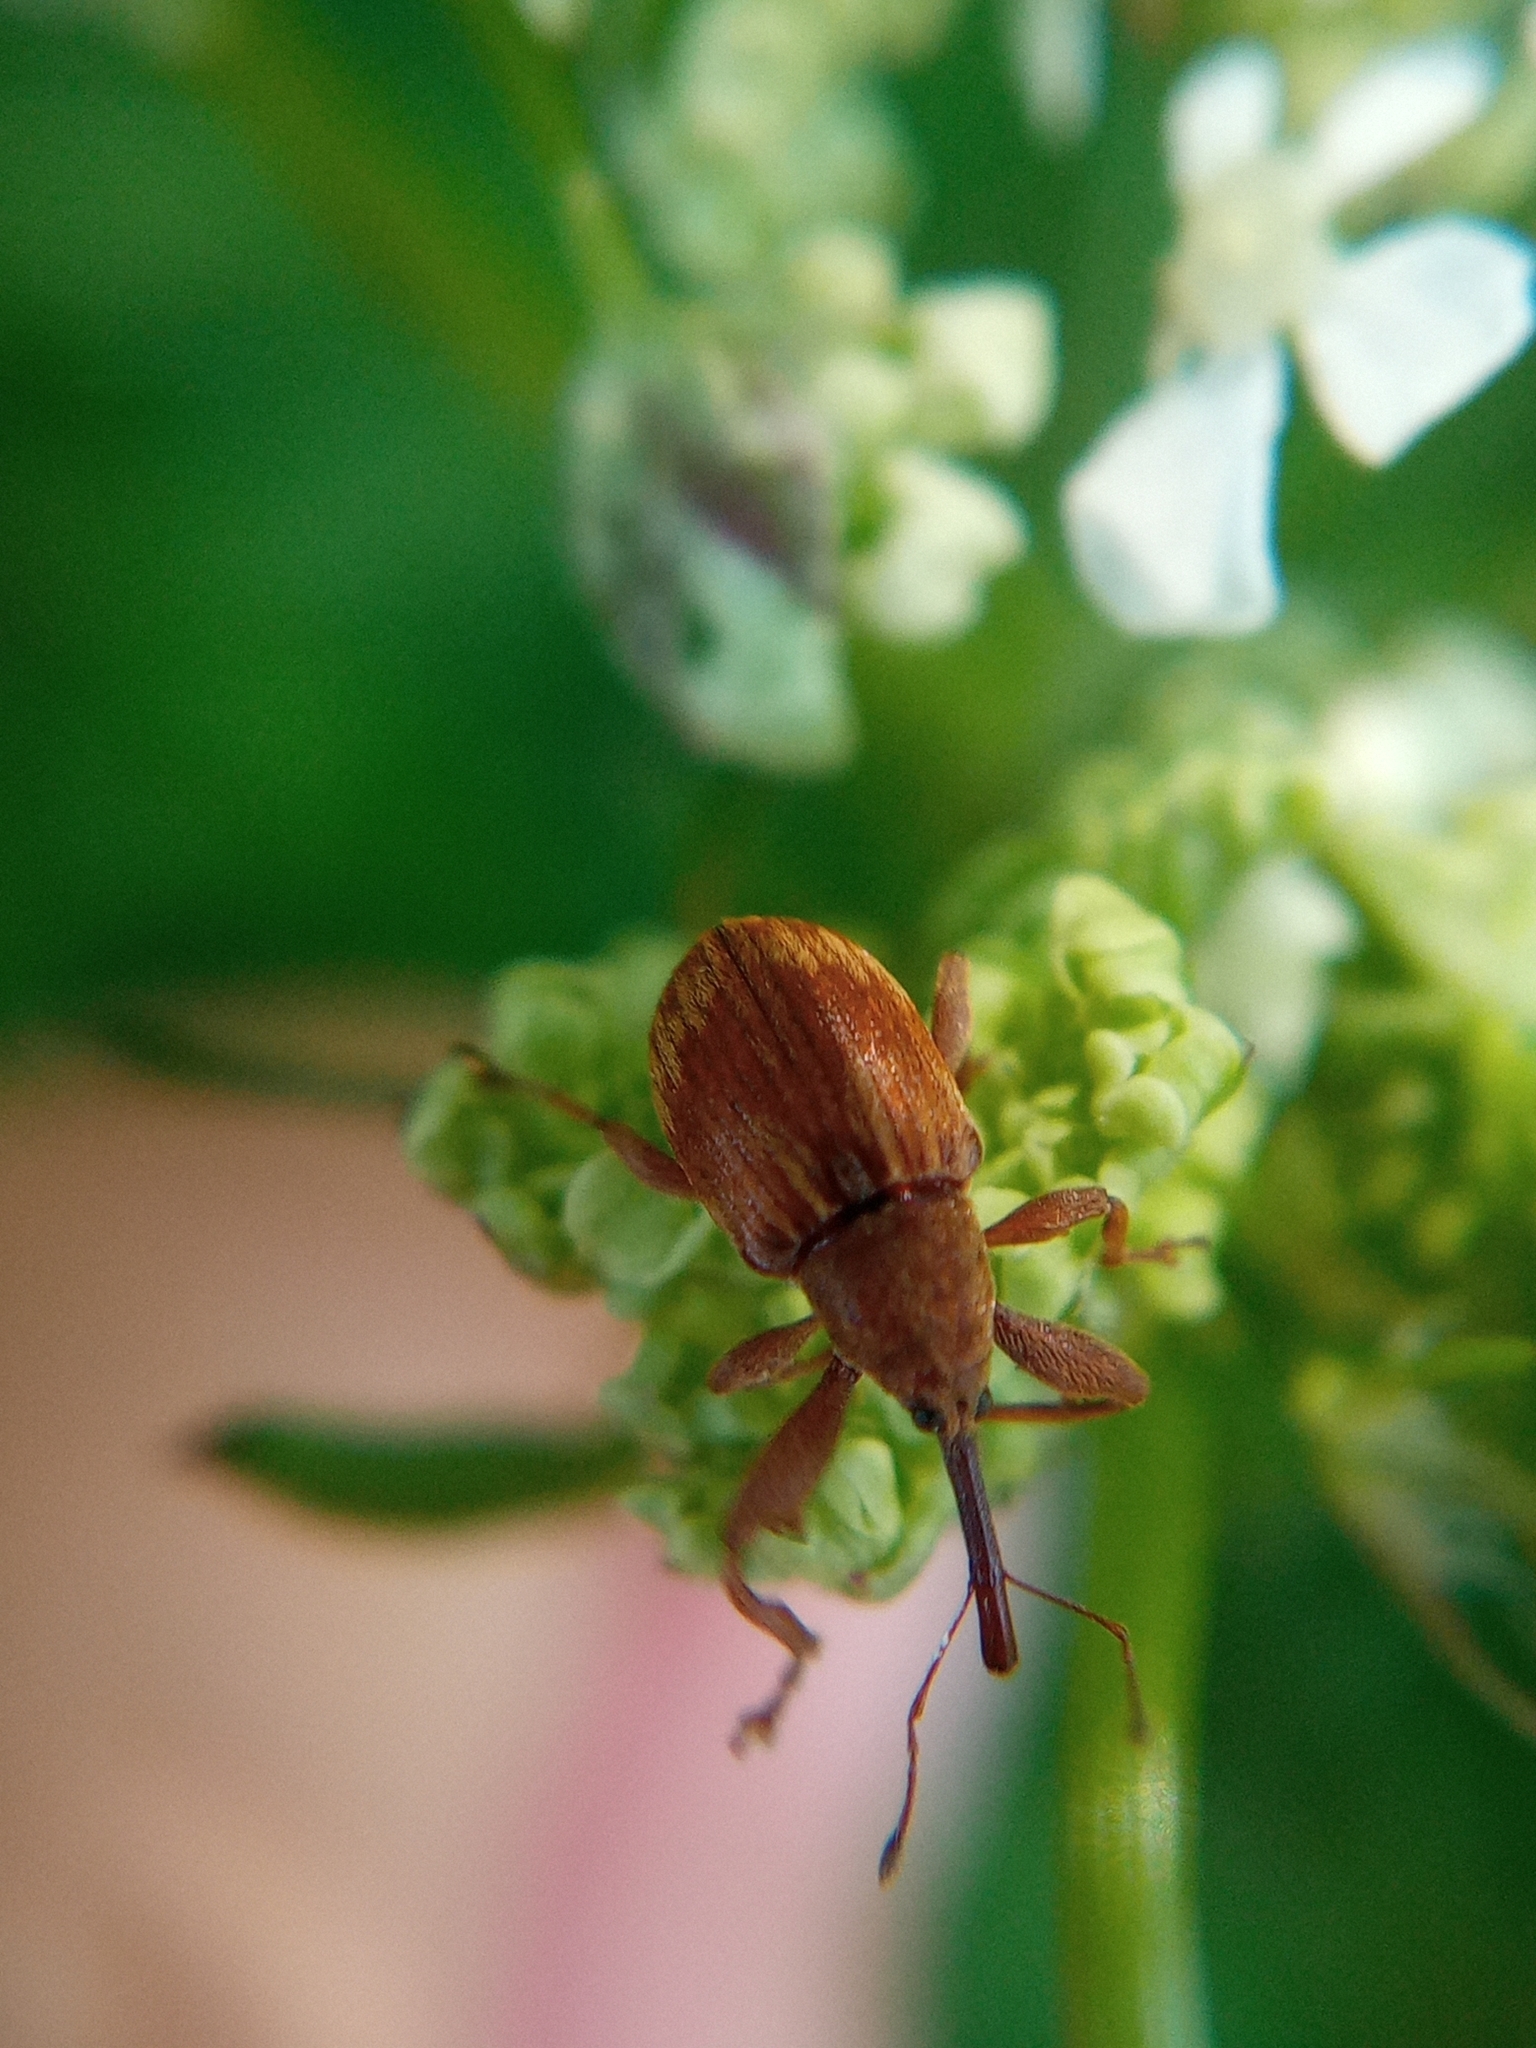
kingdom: Animalia
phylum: Arthropoda
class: Insecta
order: Coleoptera
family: Curculionidae
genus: Anthonomus
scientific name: Anthonomus rectirostris
